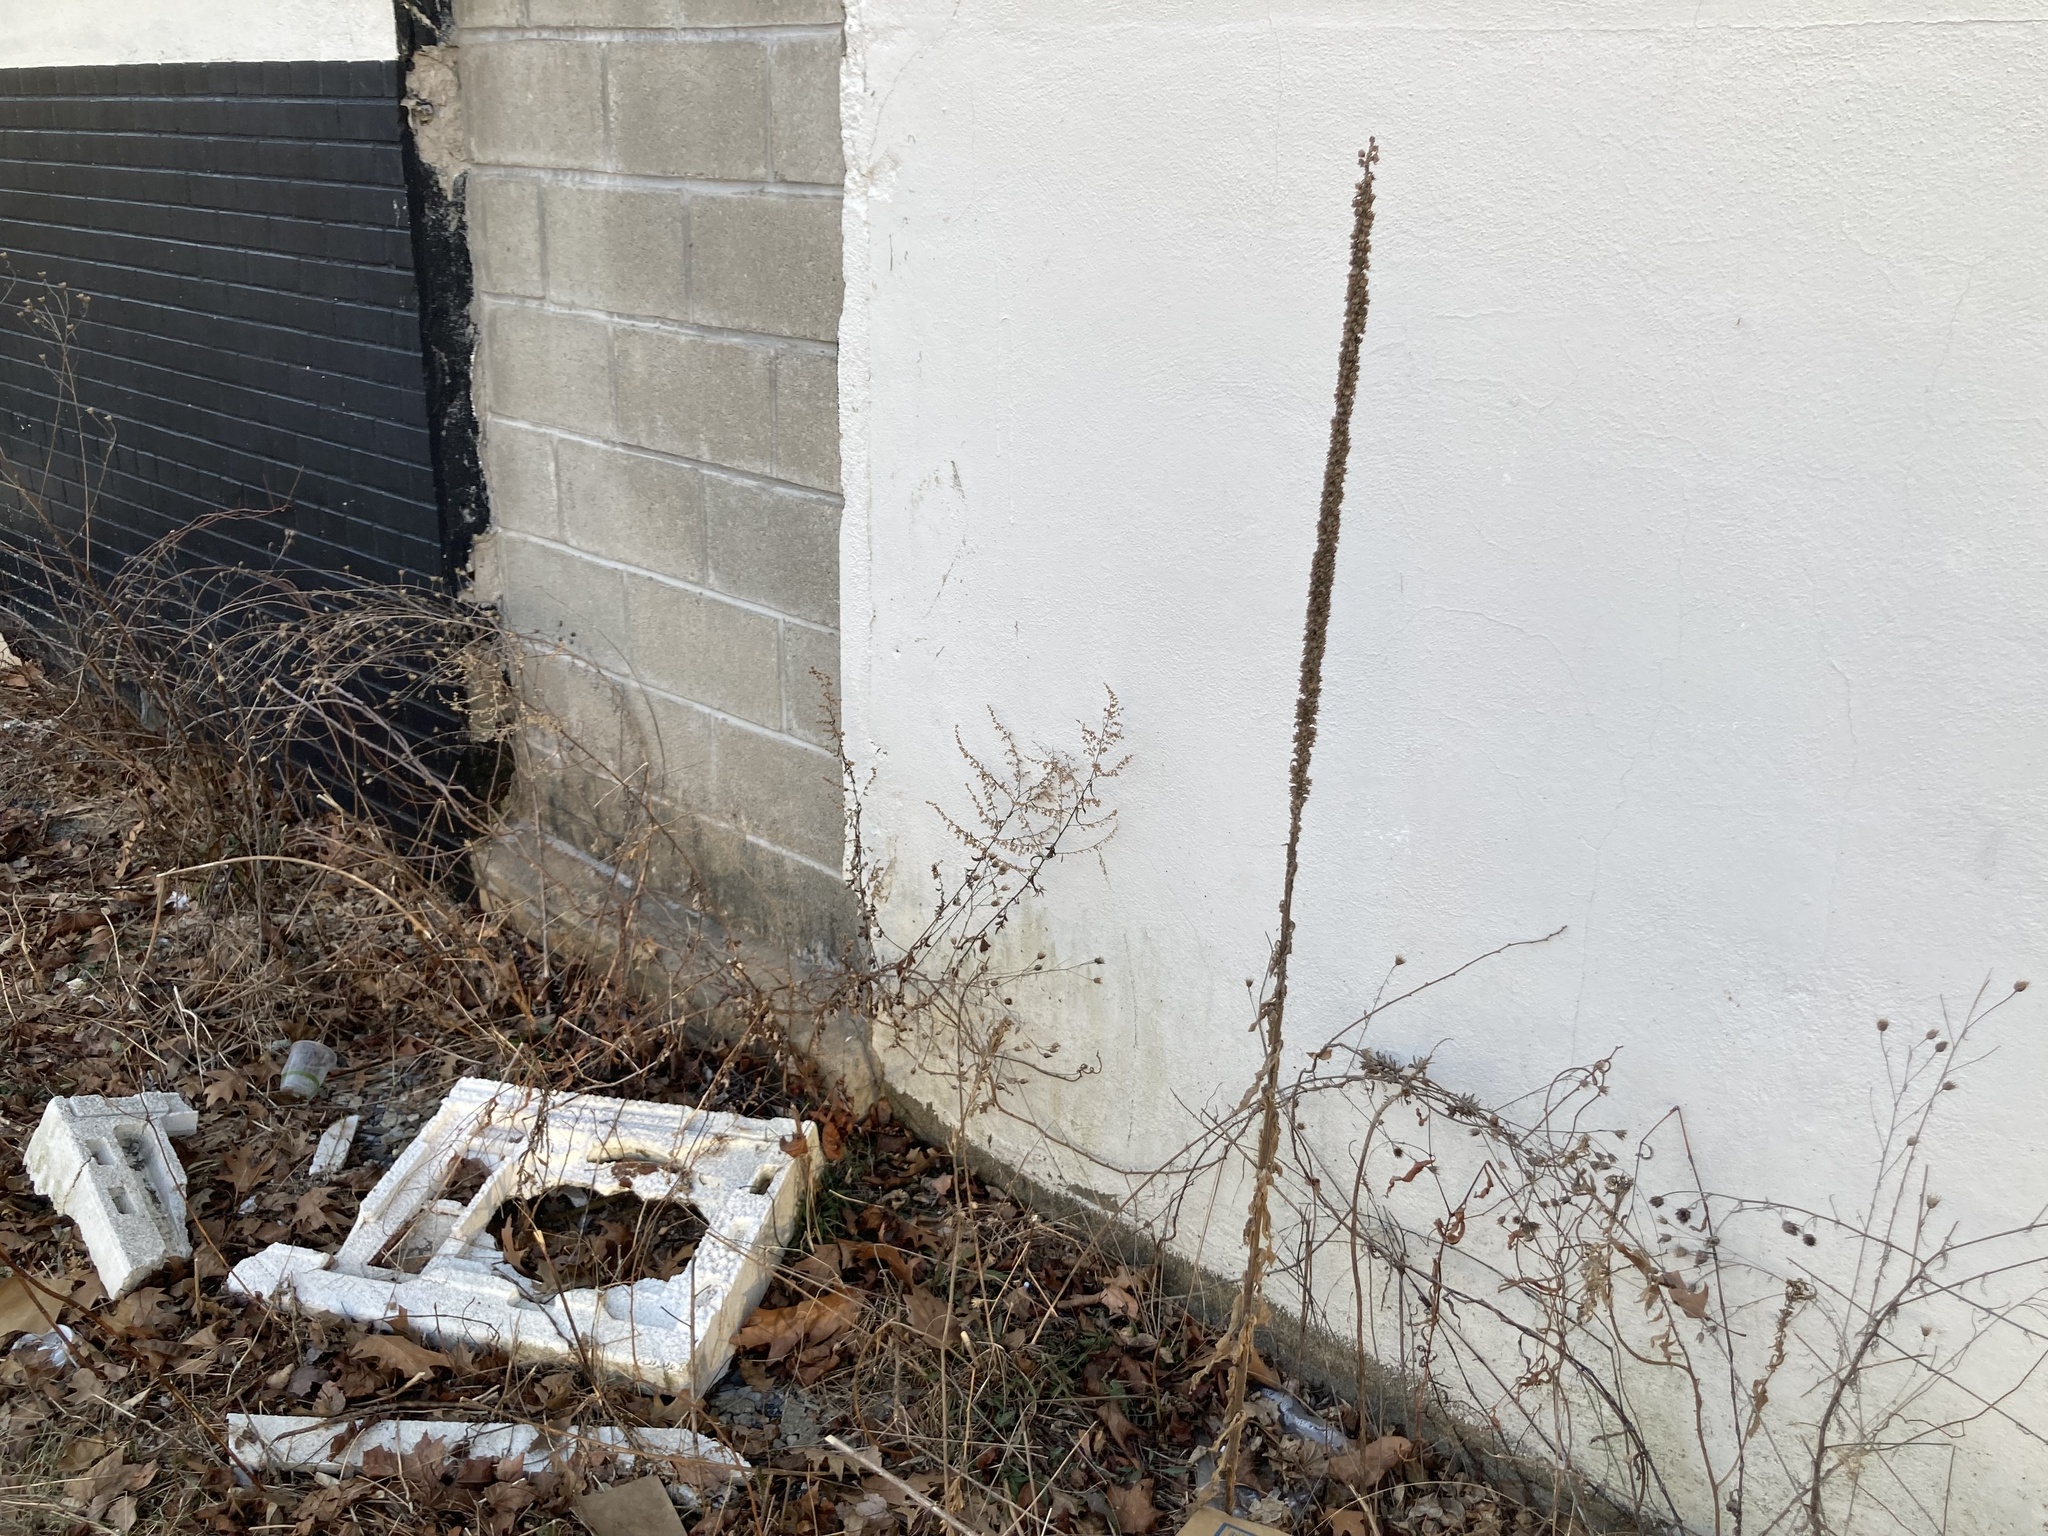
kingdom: Plantae
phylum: Tracheophyta
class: Magnoliopsida
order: Lamiales
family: Scrophulariaceae
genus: Verbascum
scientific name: Verbascum thapsus
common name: Common mullein
